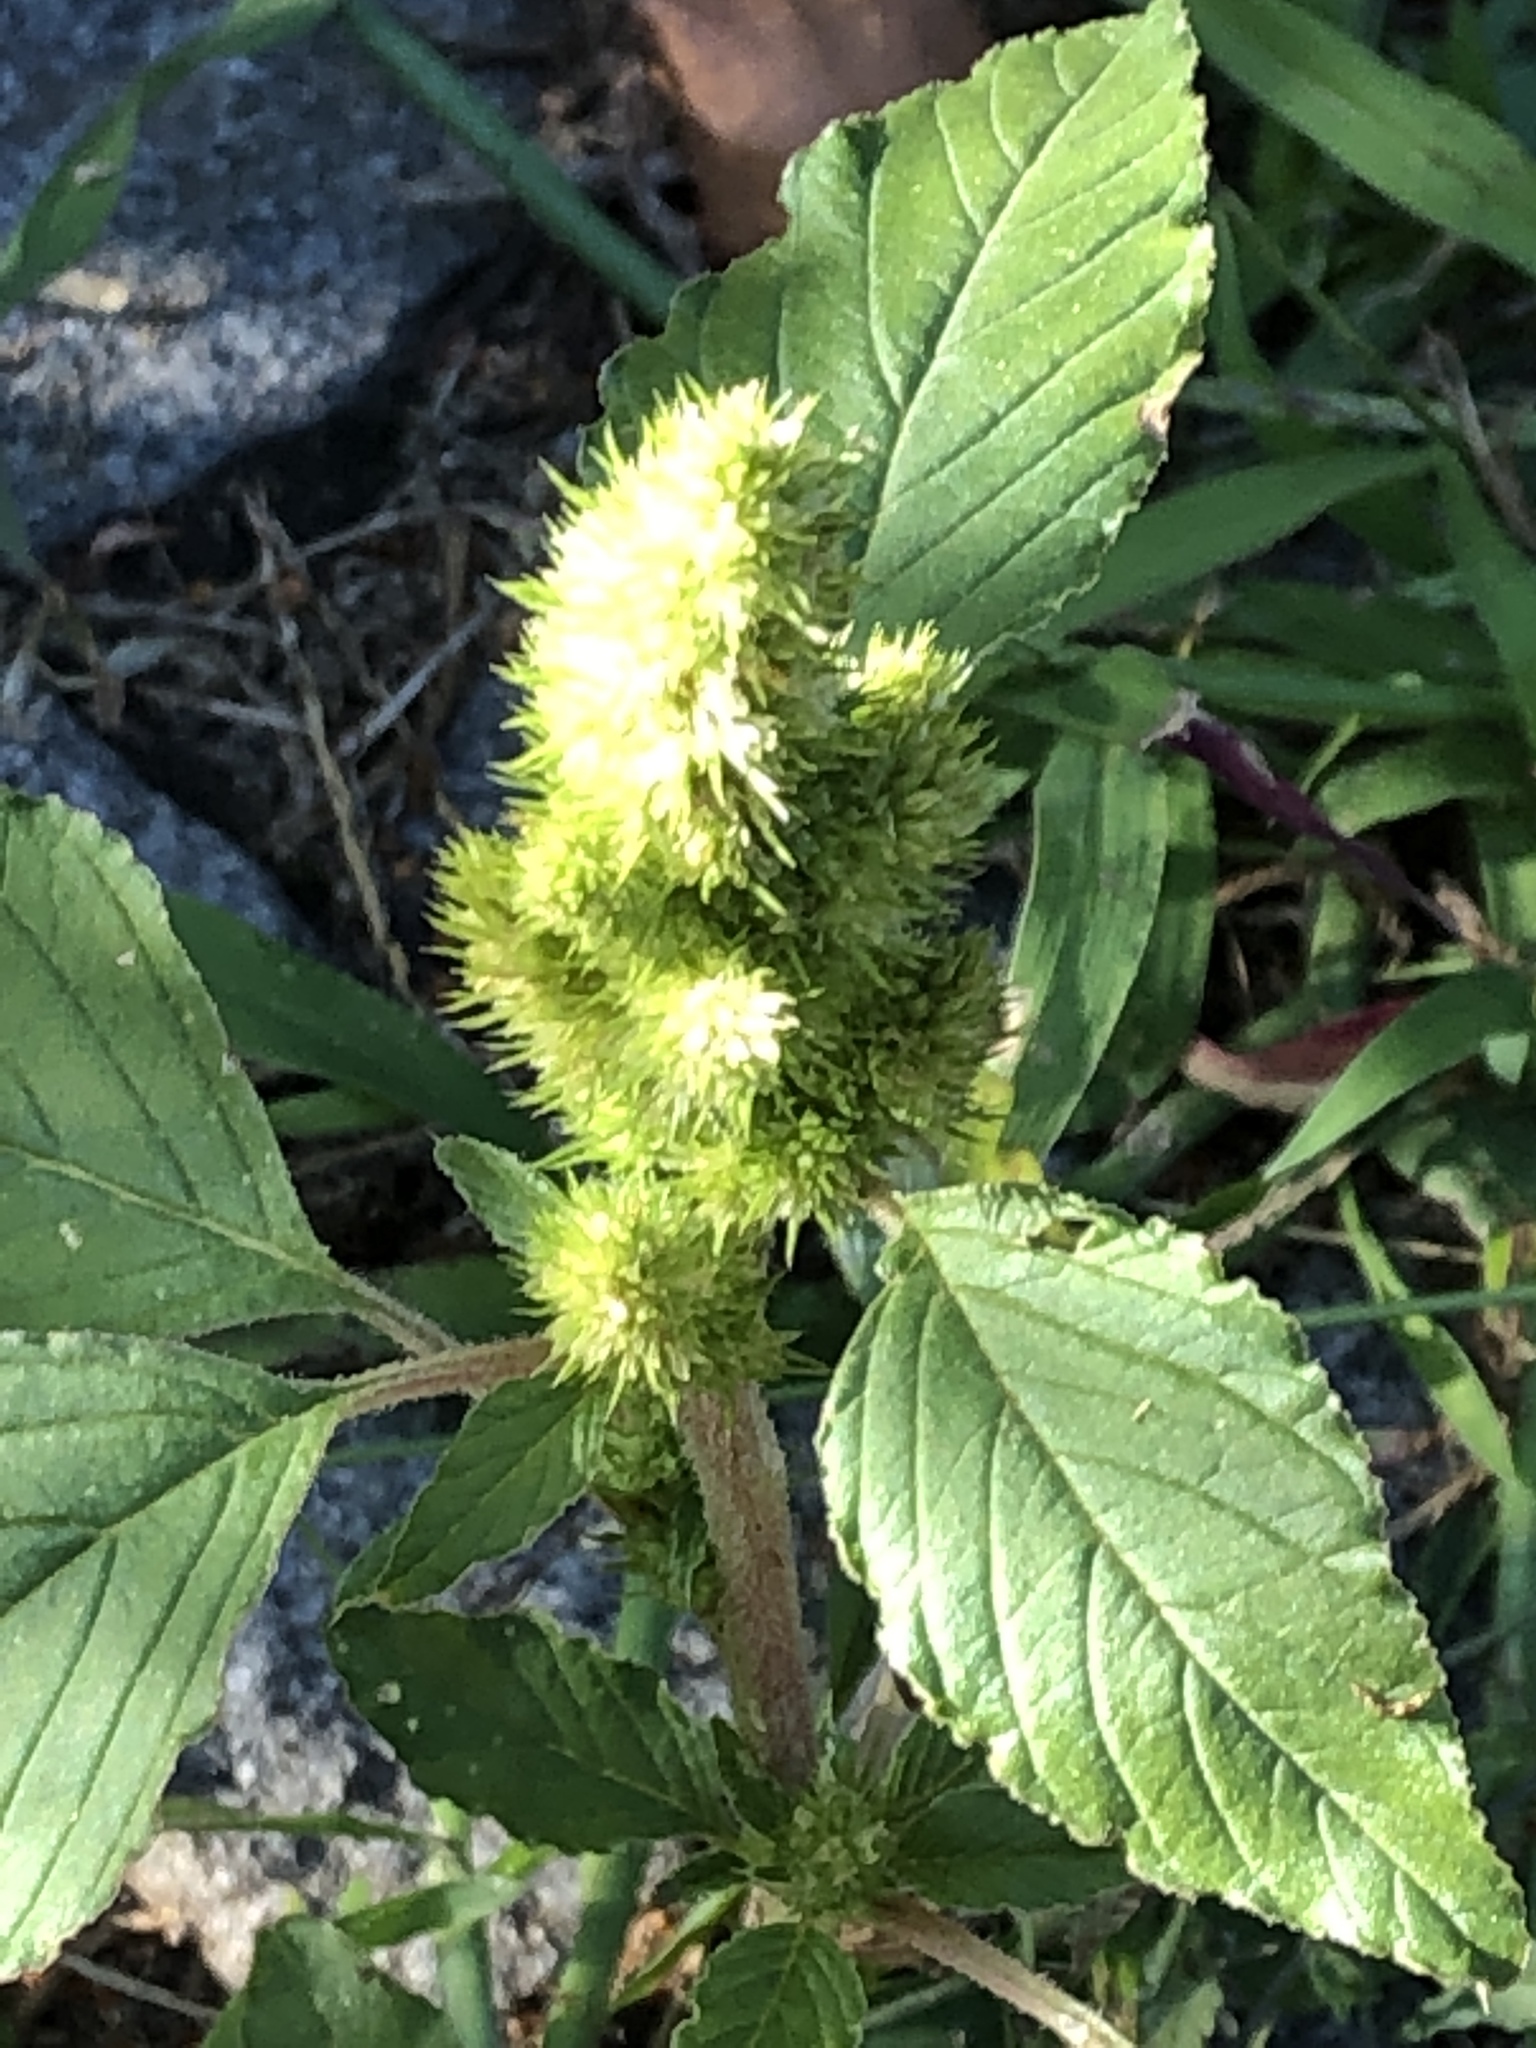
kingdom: Plantae
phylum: Tracheophyta
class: Magnoliopsida
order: Caryophyllales
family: Amaranthaceae
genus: Amaranthus
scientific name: Amaranthus retroflexus
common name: Redroot amaranth
